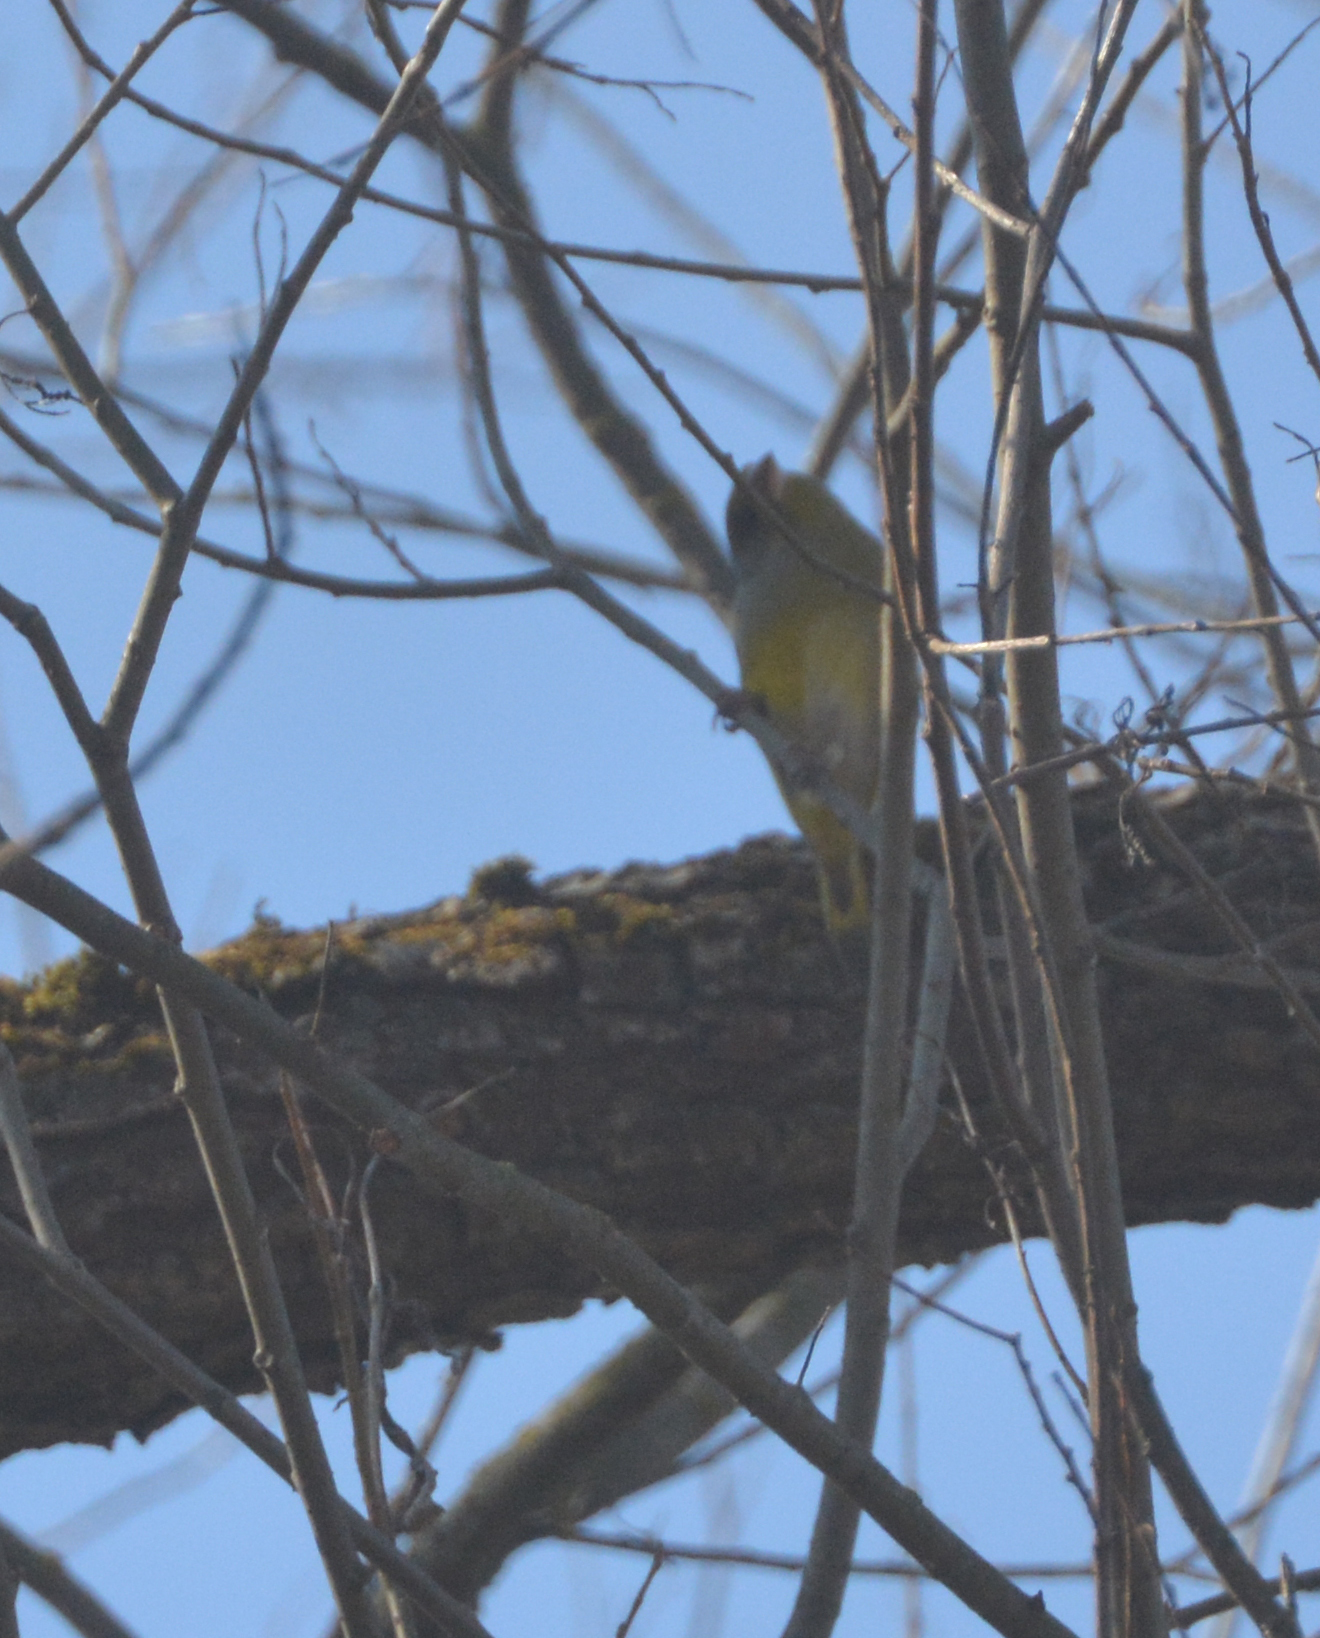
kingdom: Plantae
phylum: Tracheophyta
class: Liliopsida
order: Poales
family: Poaceae
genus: Chloris
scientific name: Chloris chloris
